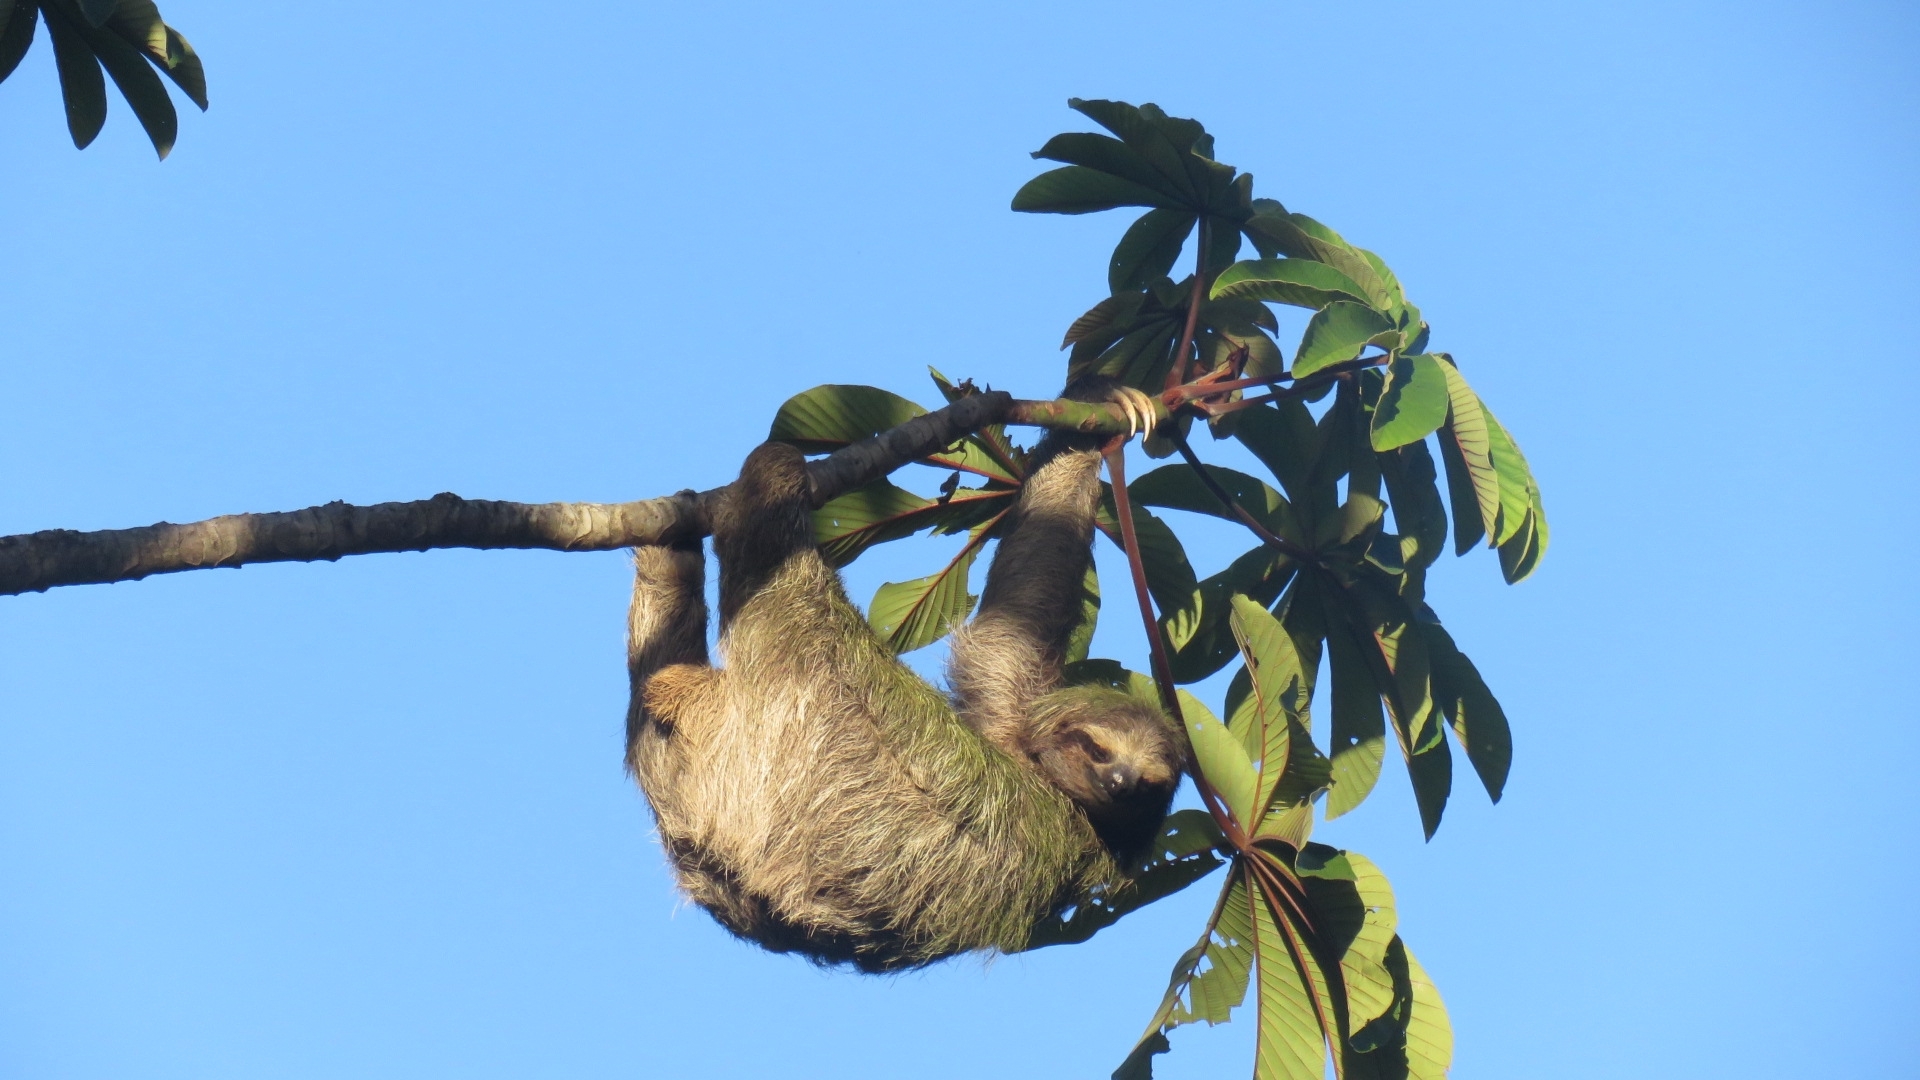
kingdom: Animalia
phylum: Chordata
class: Mammalia
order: Pilosa
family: Bradypodidae
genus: Bradypus
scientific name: Bradypus variegatus
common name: Brown-throated three-toed sloth
